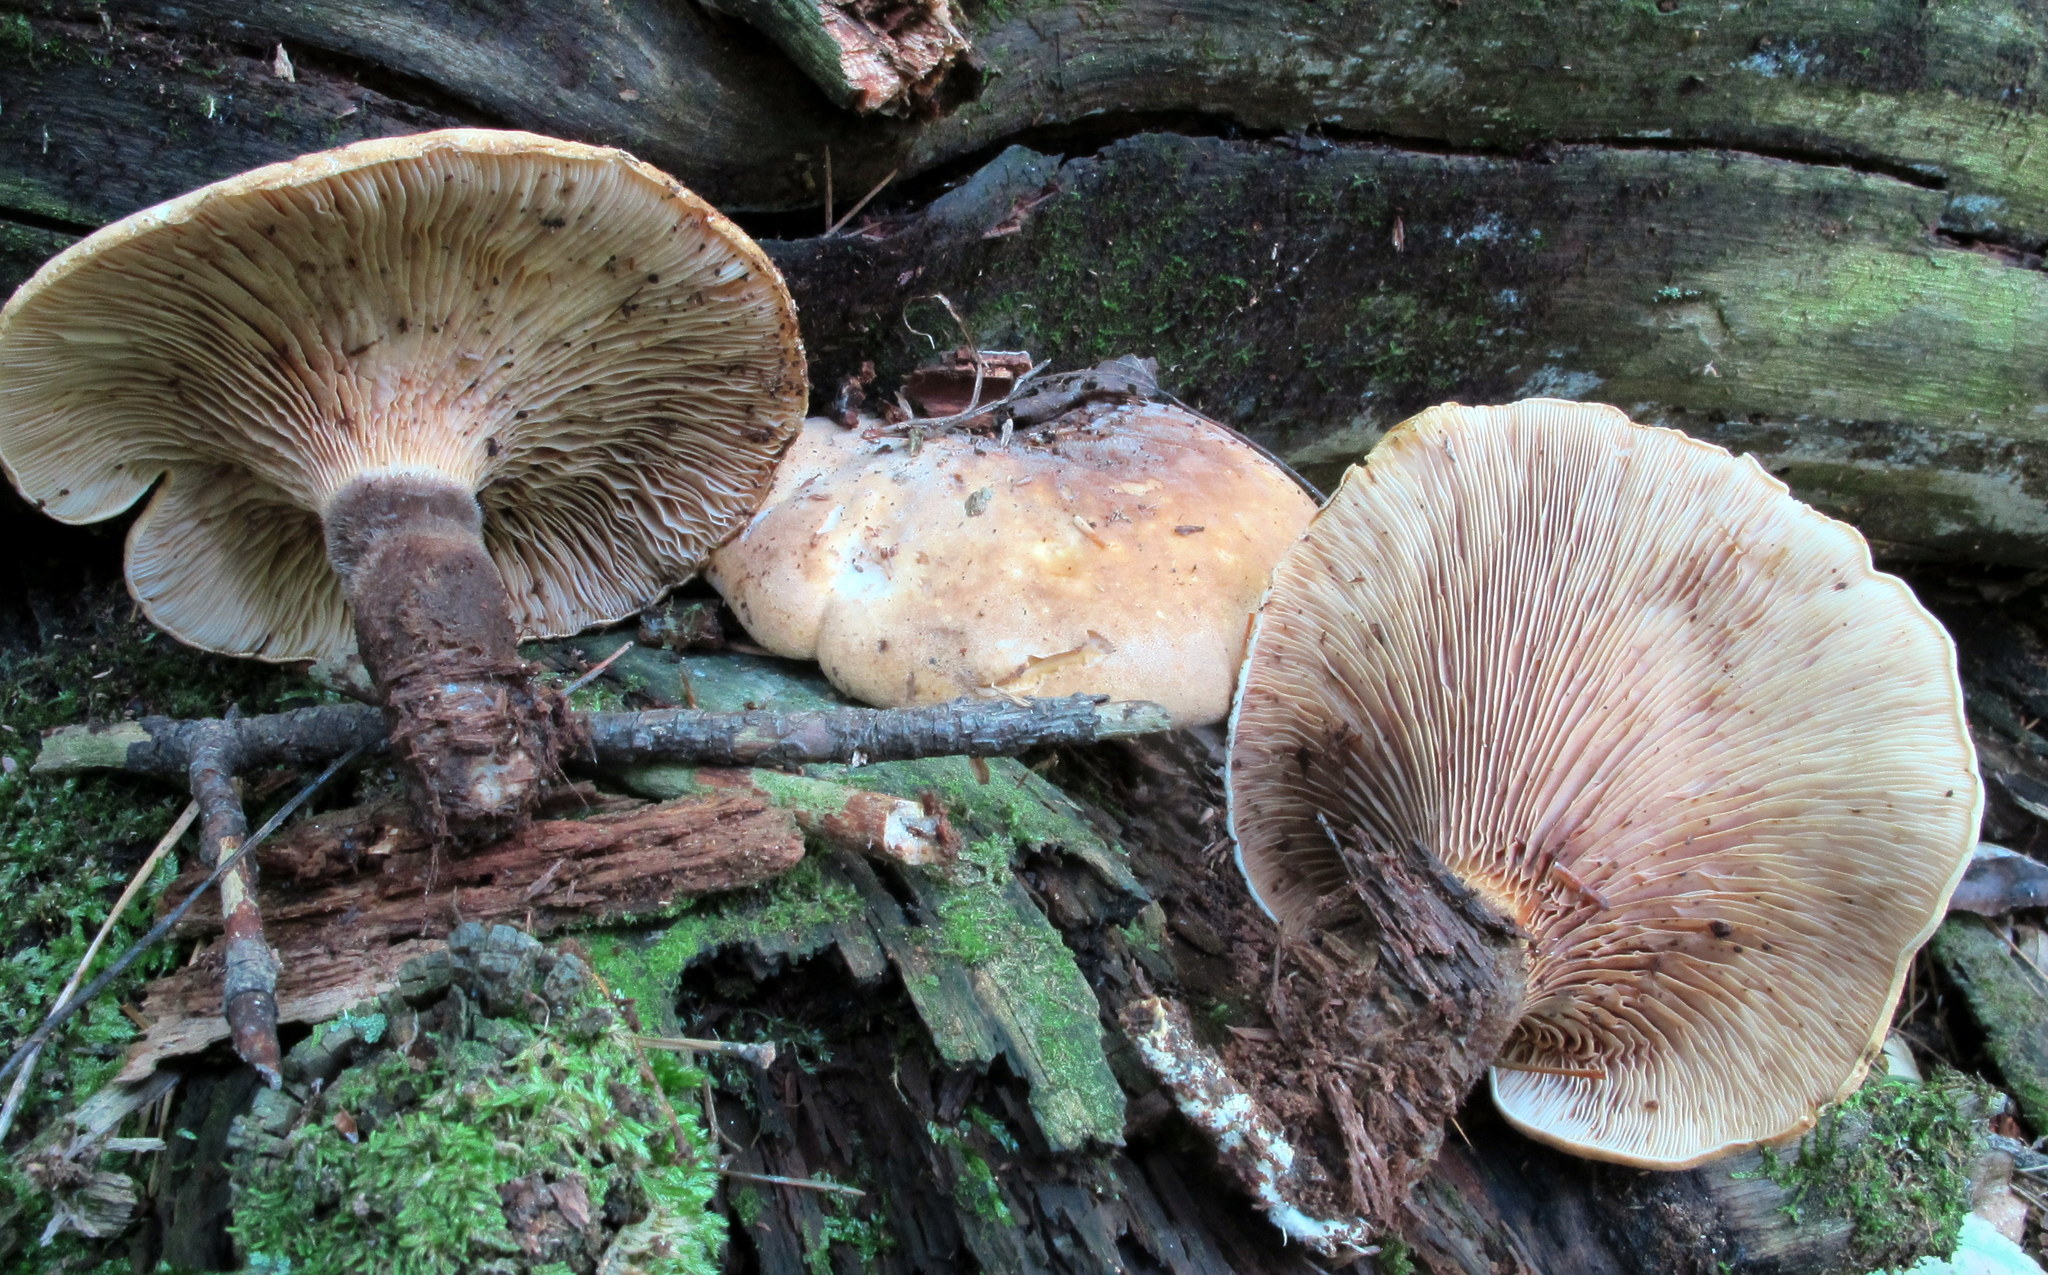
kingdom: Fungi
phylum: Basidiomycota
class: Agaricomycetes
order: Boletales
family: Tapinellaceae
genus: Tapinella
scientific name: Tapinella atrotomentosa
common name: Velvet rollrim
